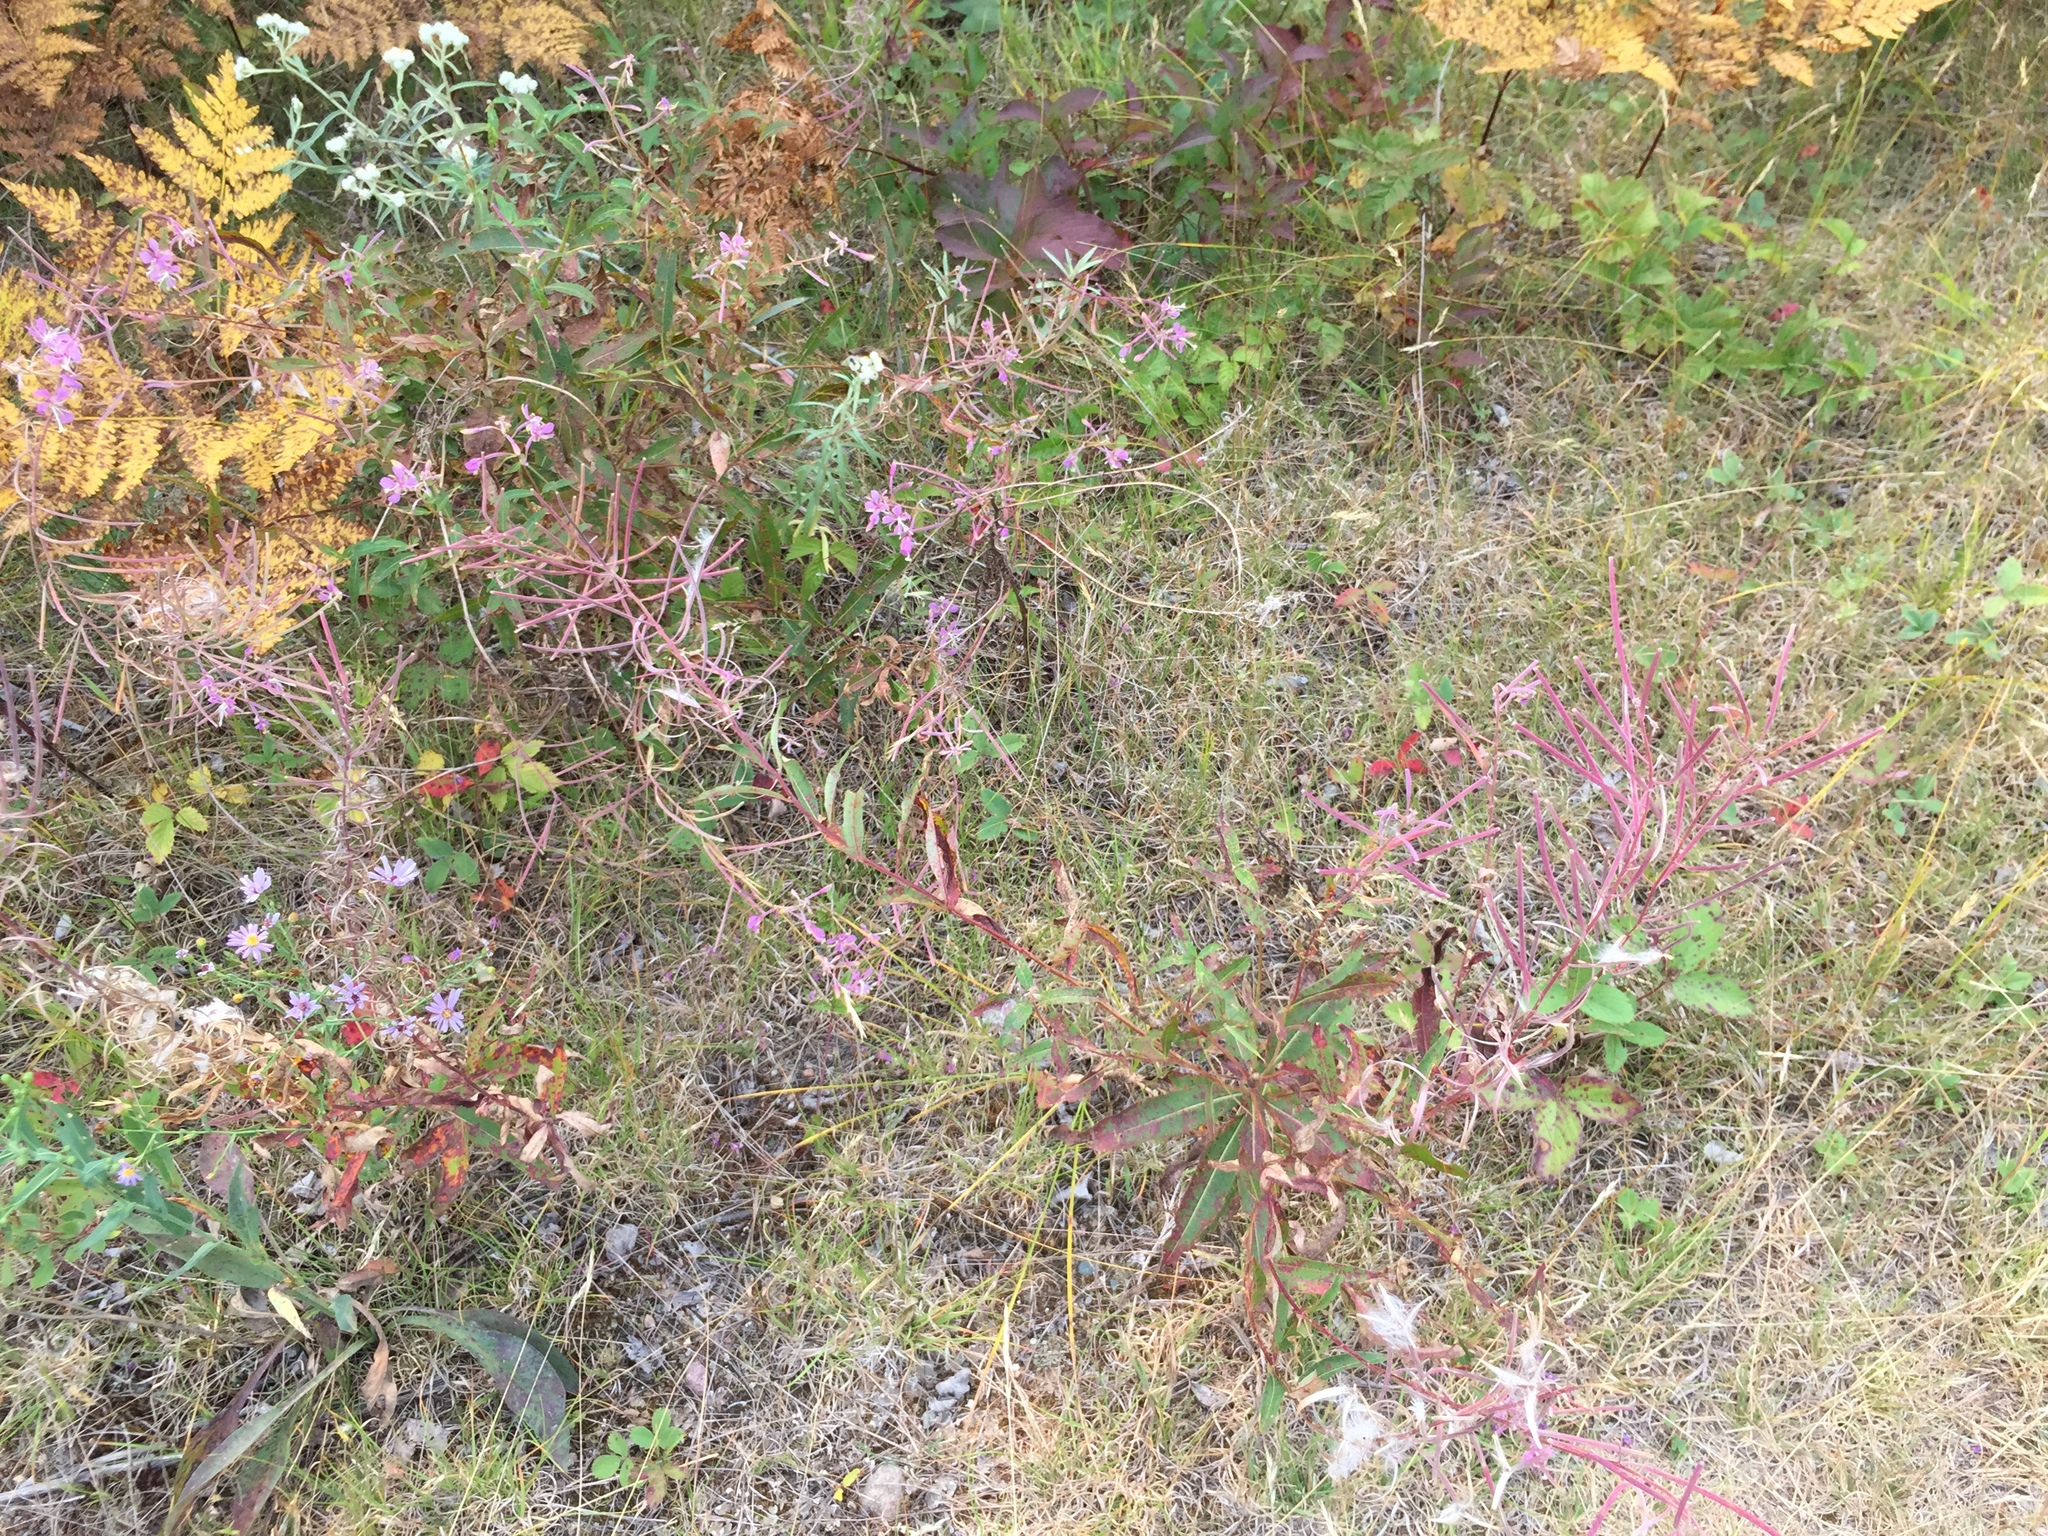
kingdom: Plantae
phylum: Tracheophyta
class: Magnoliopsida
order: Myrtales
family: Onagraceae
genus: Chamaenerion
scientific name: Chamaenerion angustifolium
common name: Fireweed
